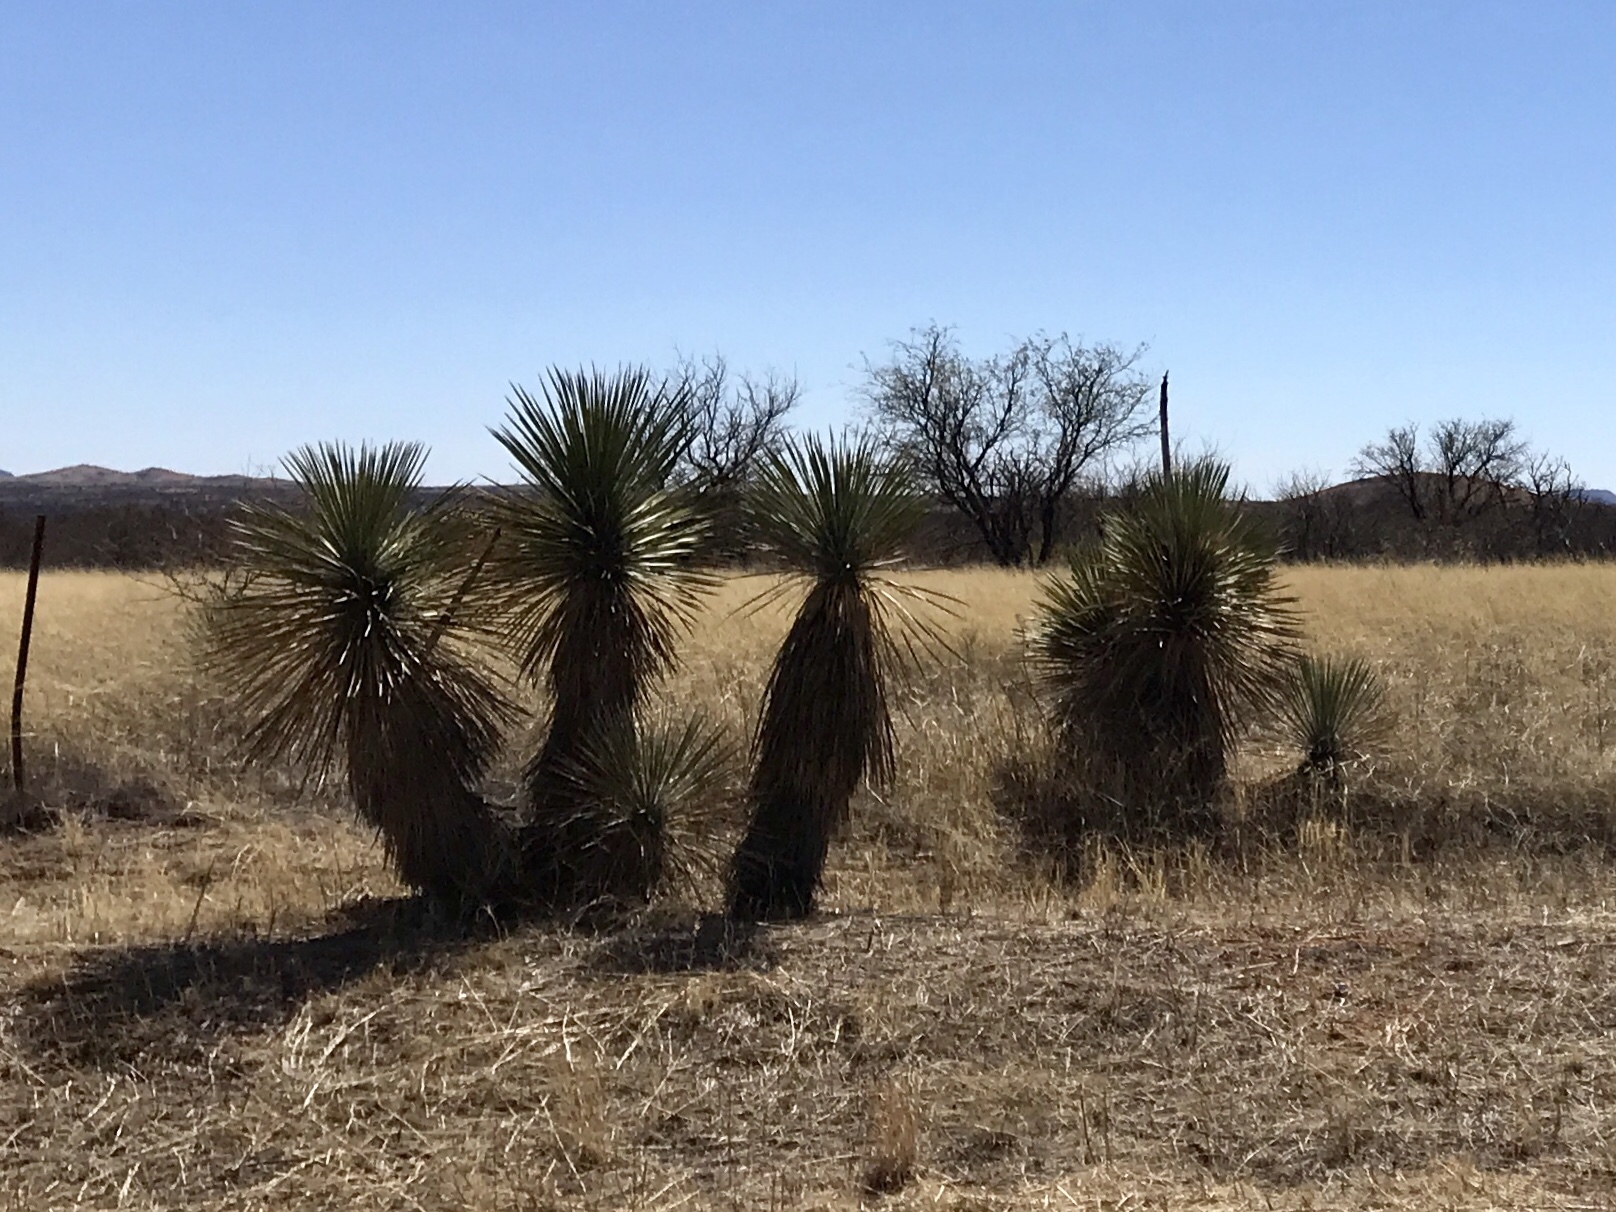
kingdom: Plantae
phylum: Tracheophyta
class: Liliopsida
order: Asparagales
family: Asparagaceae
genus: Yucca
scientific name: Yucca elata
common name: Palmella
